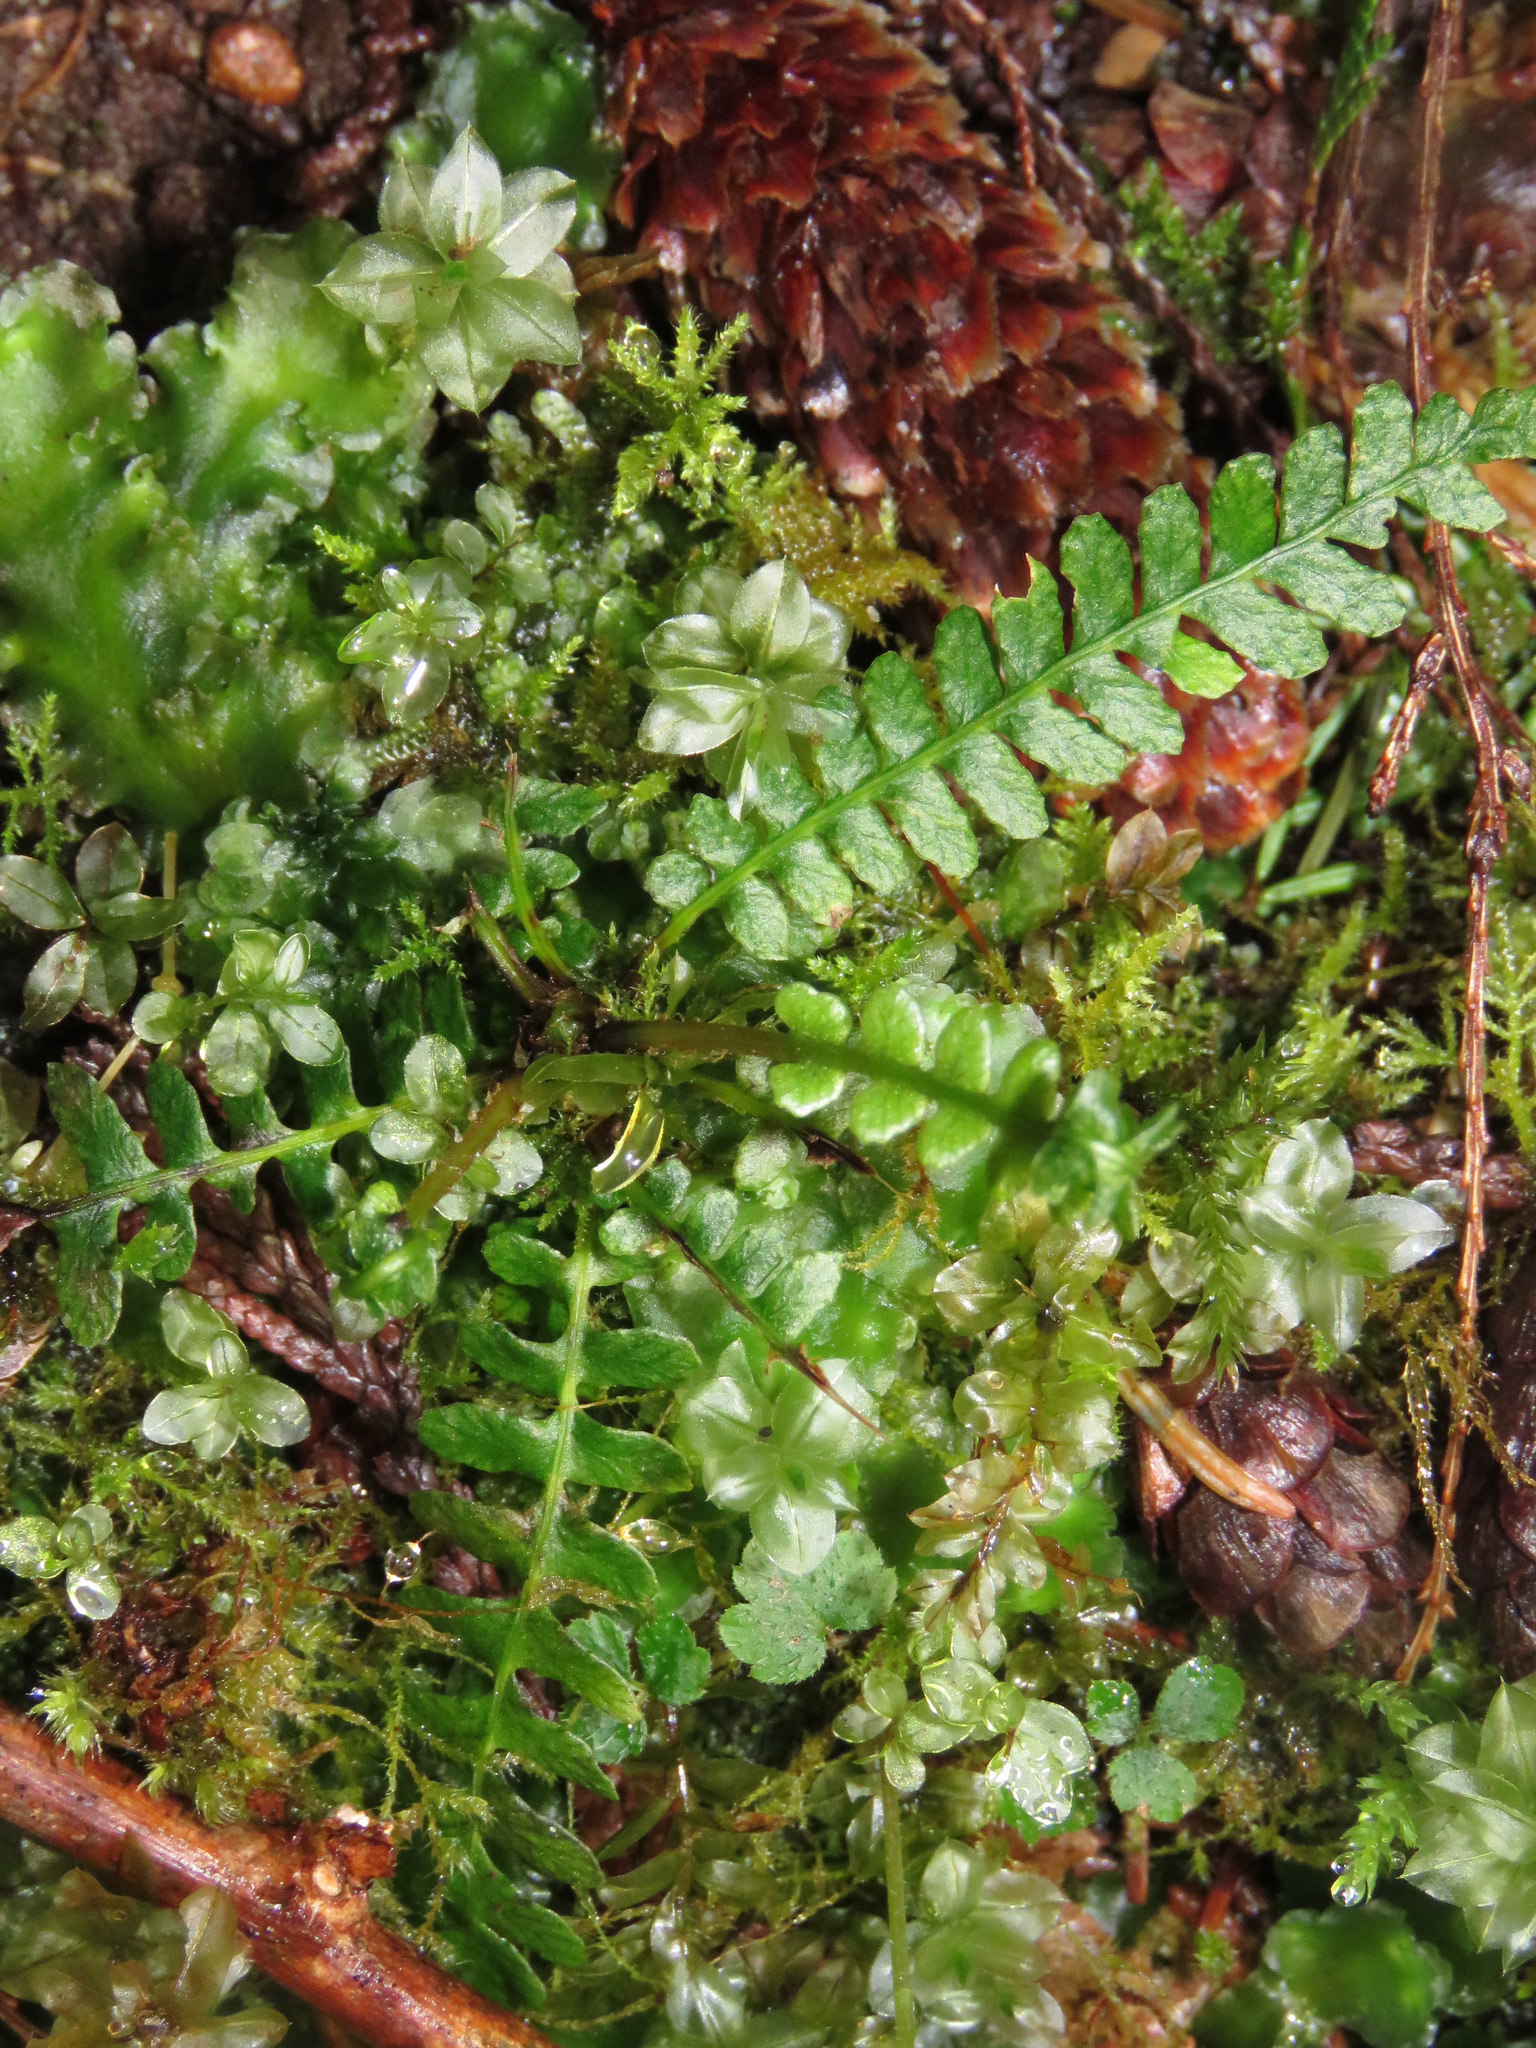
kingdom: Plantae
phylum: Tracheophyta
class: Polypodiopsida
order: Polypodiales
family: Blechnaceae
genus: Struthiopteris
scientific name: Struthiopteris spicant
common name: Deer fern
